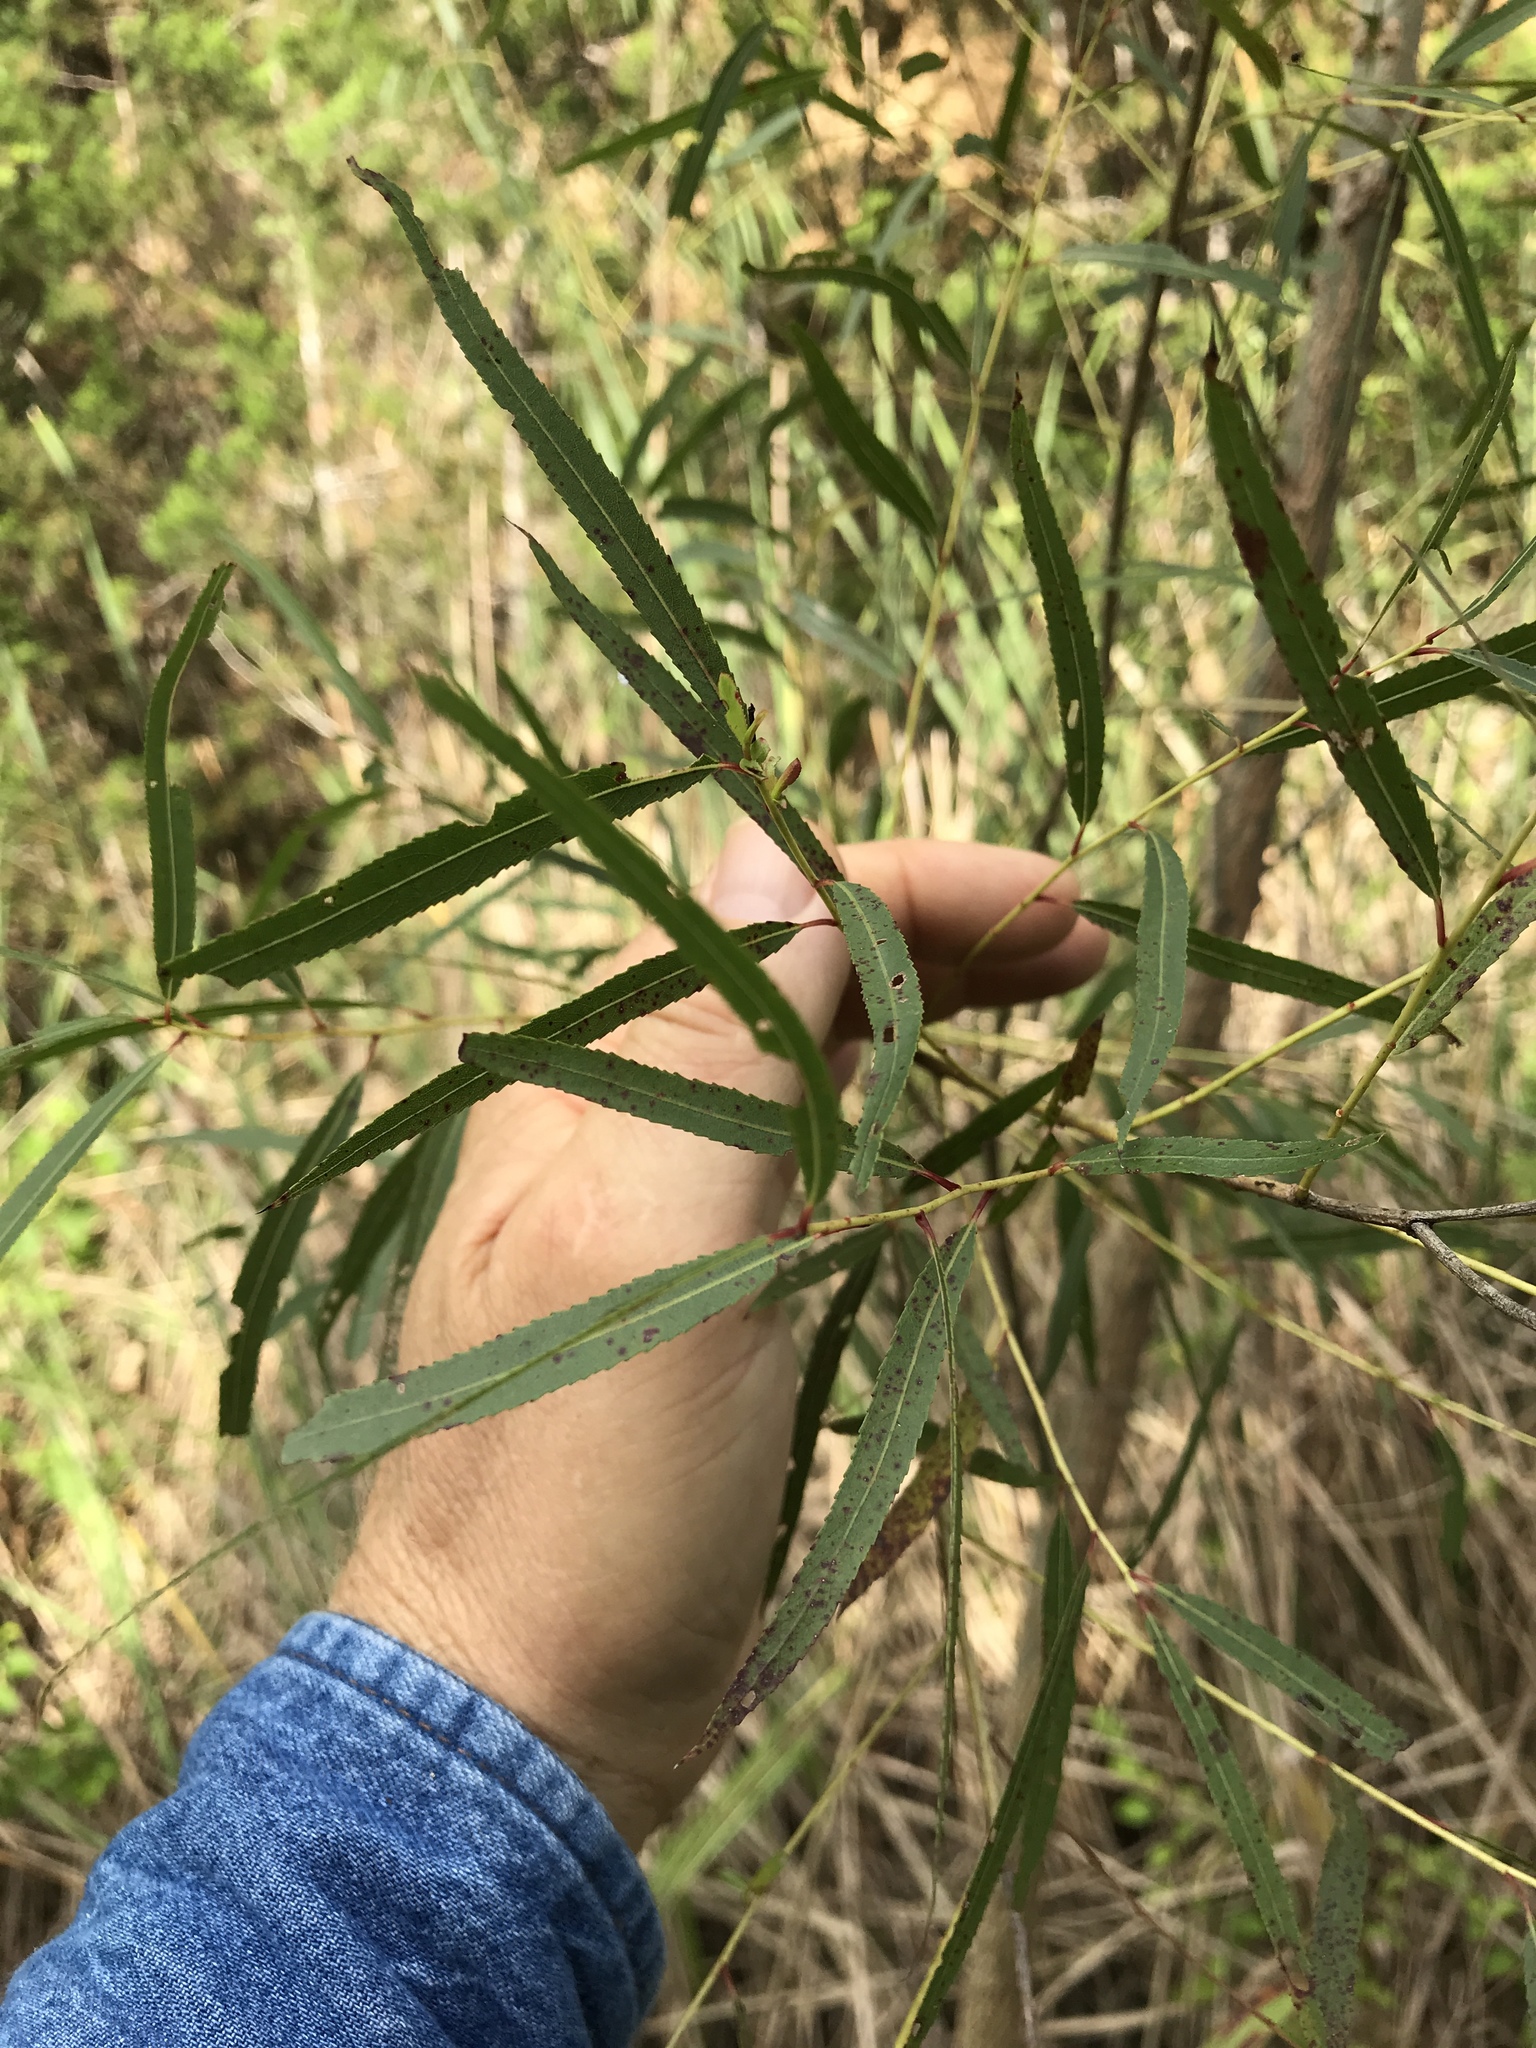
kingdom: Plantae
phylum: Tracheophyta
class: Magnoliopsida
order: Malpighiales
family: Salicaceae
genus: Salix
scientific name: Salix nigra
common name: Black willow
